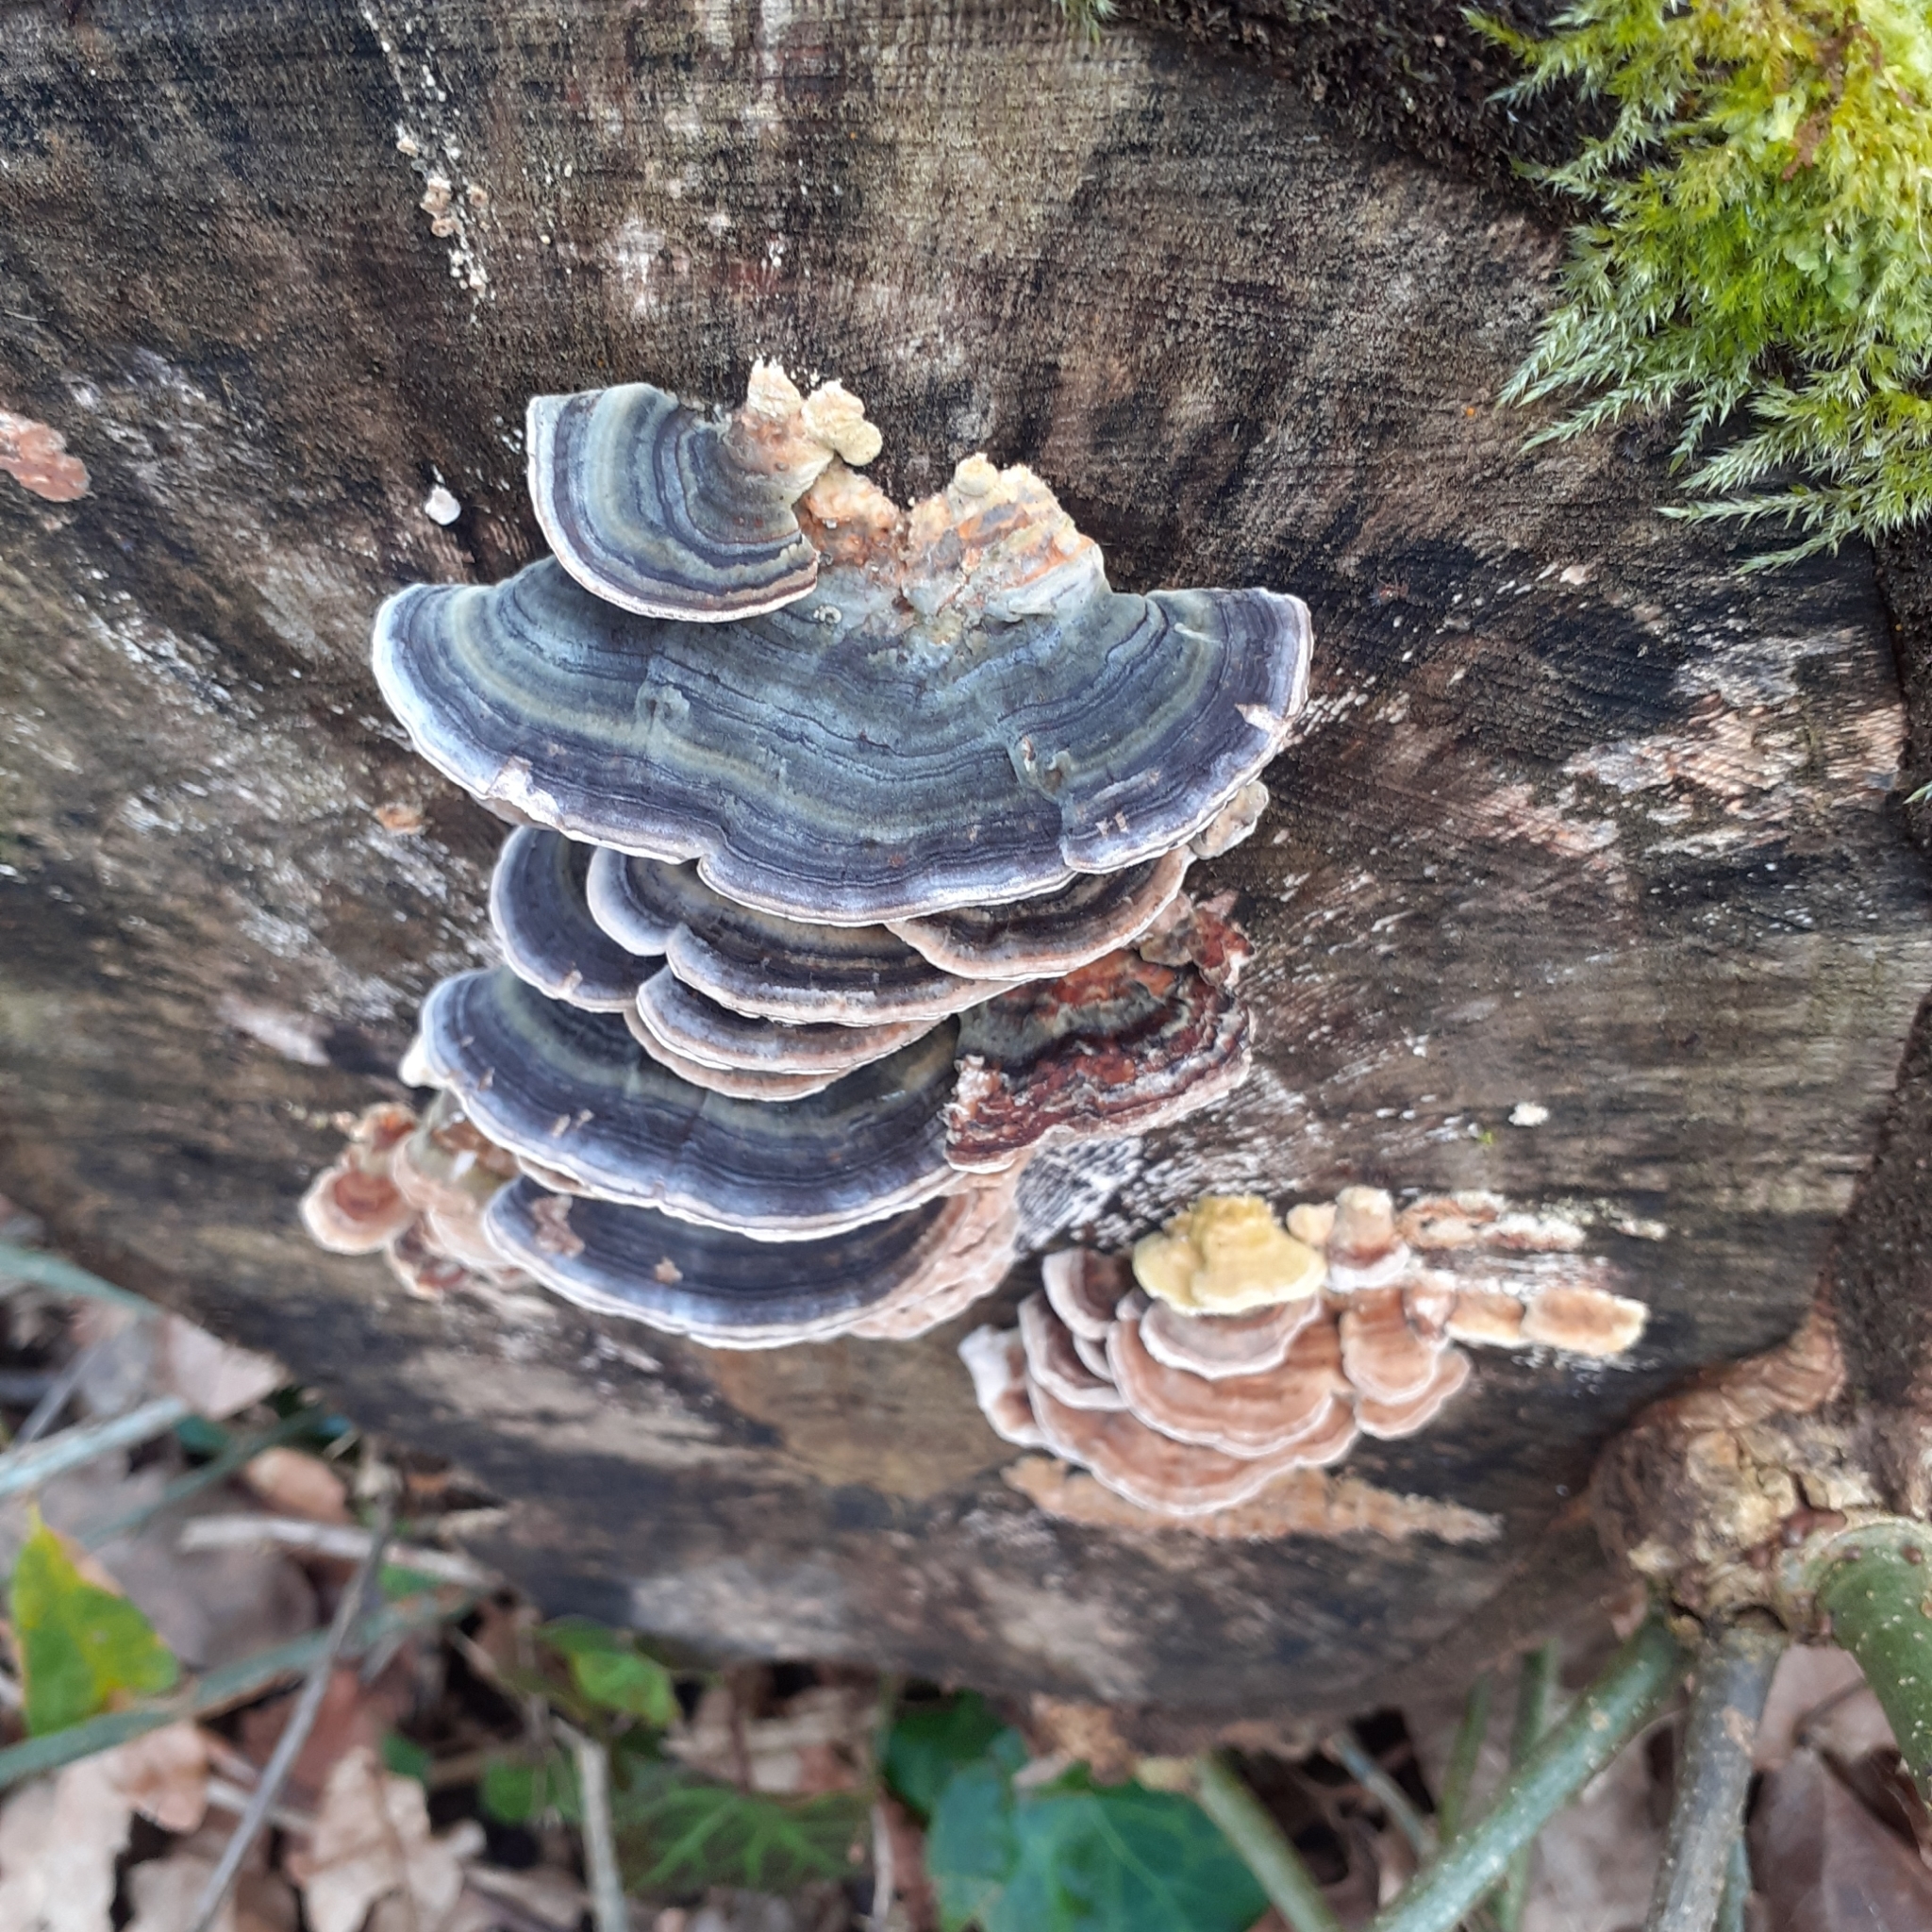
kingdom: Fungi
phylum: Basidiomycota
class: Agaricomycetes
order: Polyporales
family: Polyporaceae
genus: Trametes
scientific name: Trametes versicolor
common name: Turkeytail
